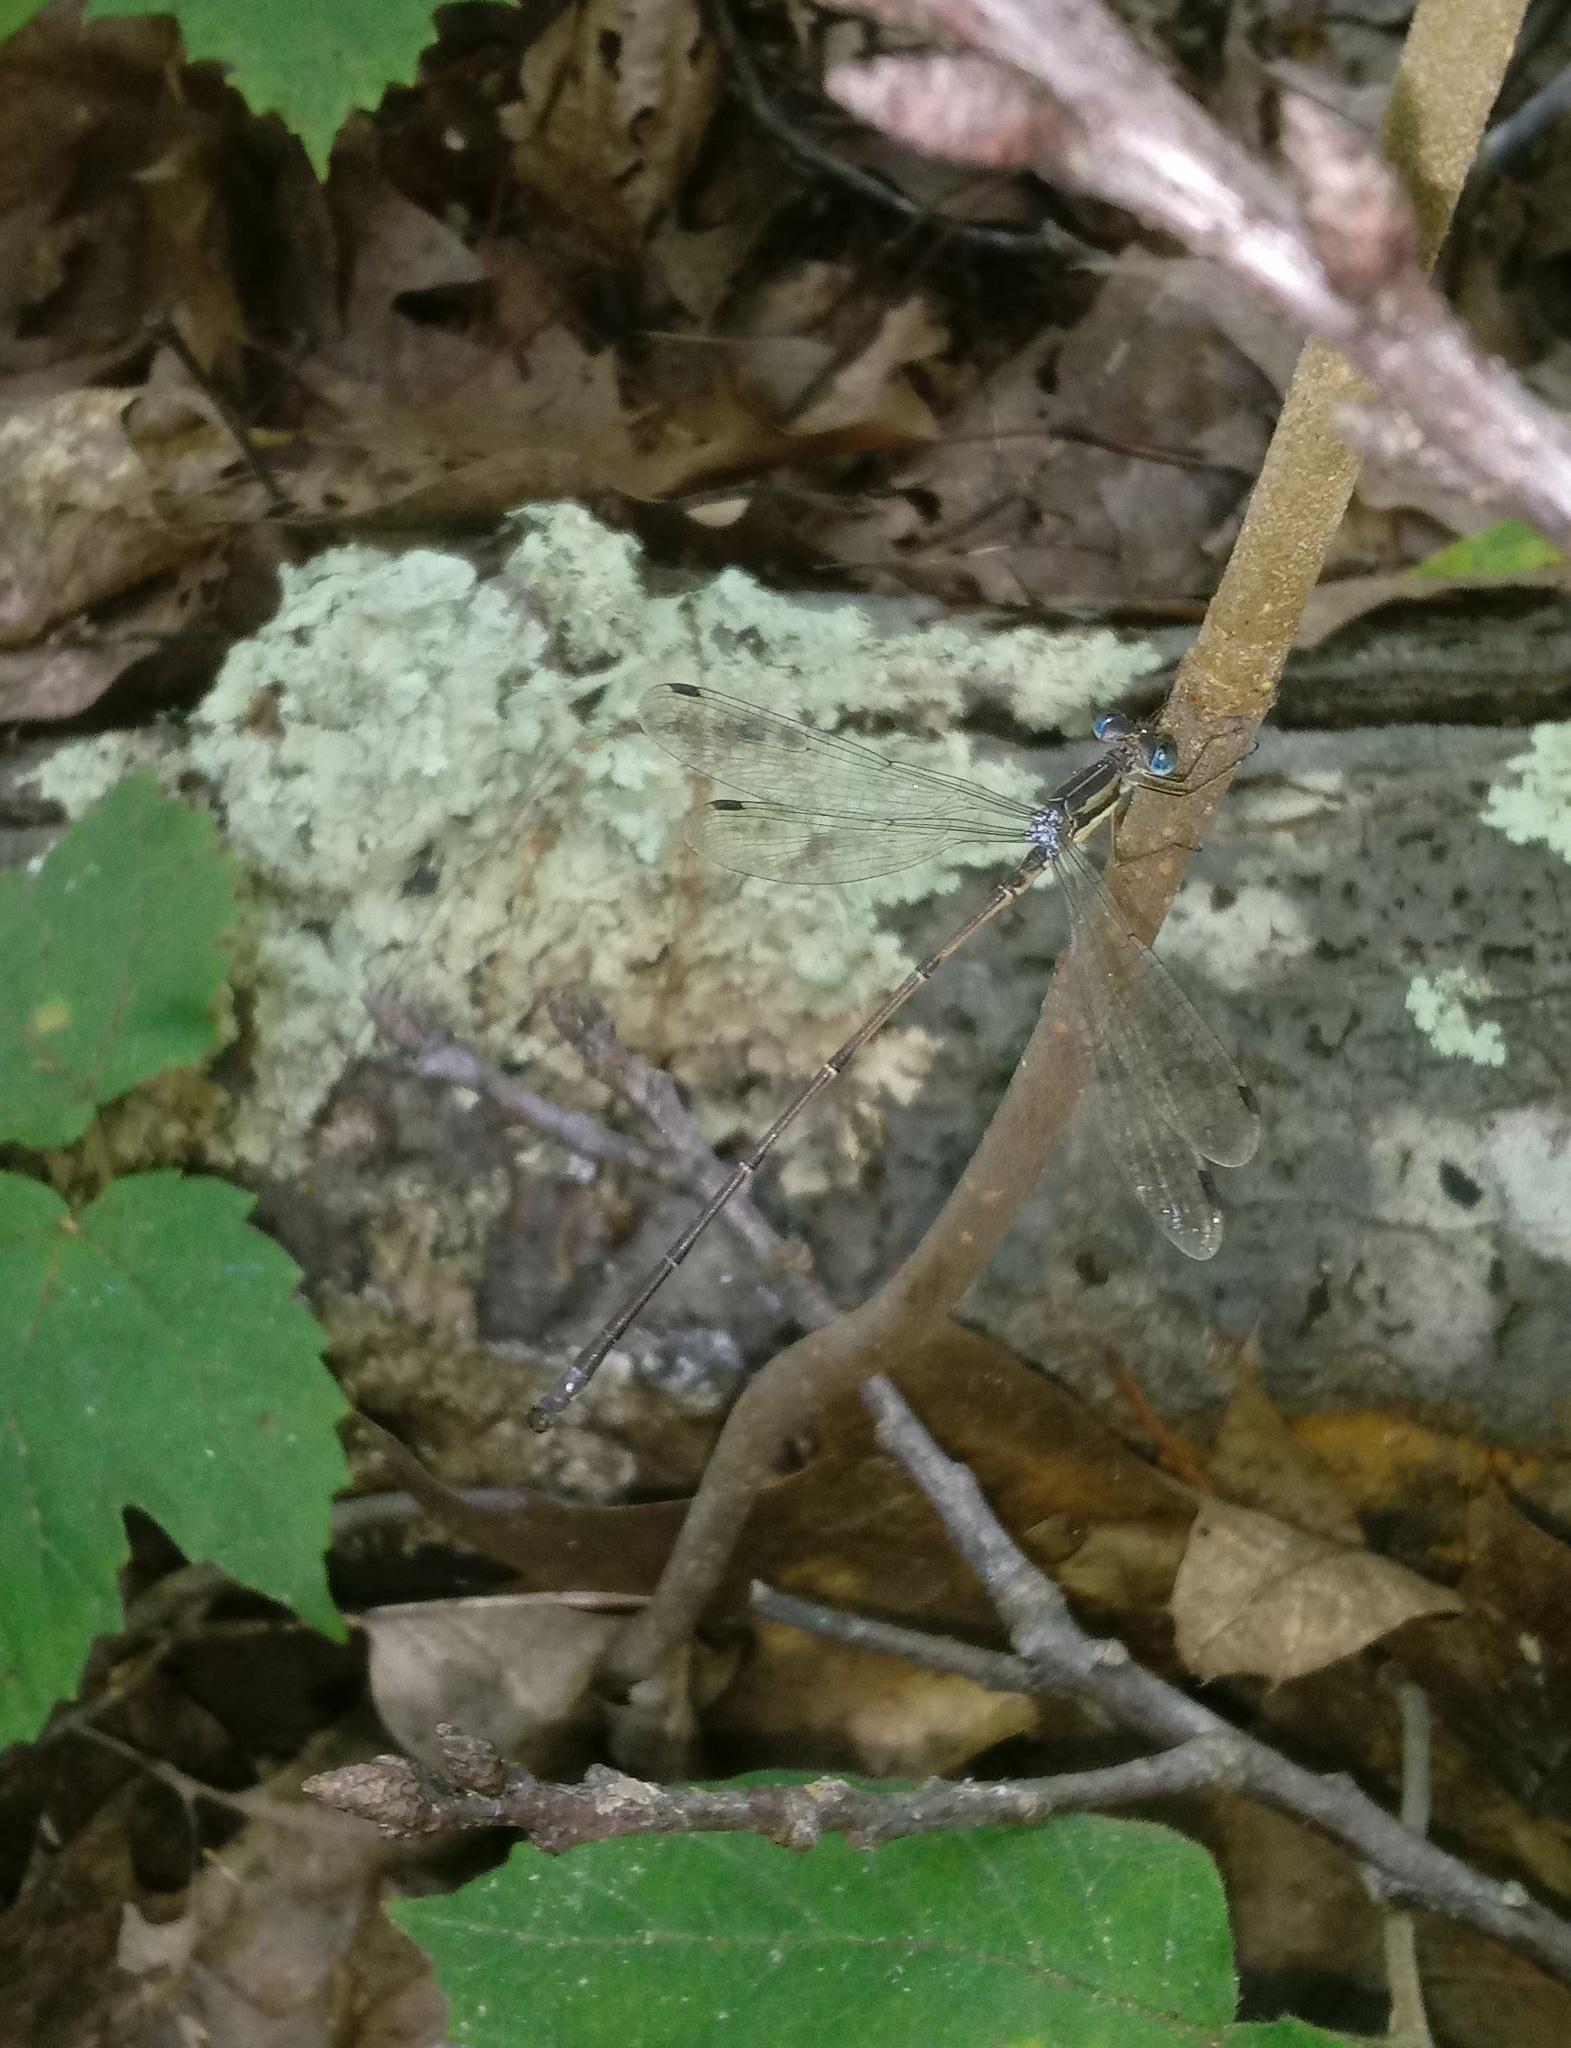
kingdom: Animalia
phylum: Arthropoda
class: Insecta
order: Odonata
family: Lestidae
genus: Lestes
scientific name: Lestes rectangularis
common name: Slender spreadwing
